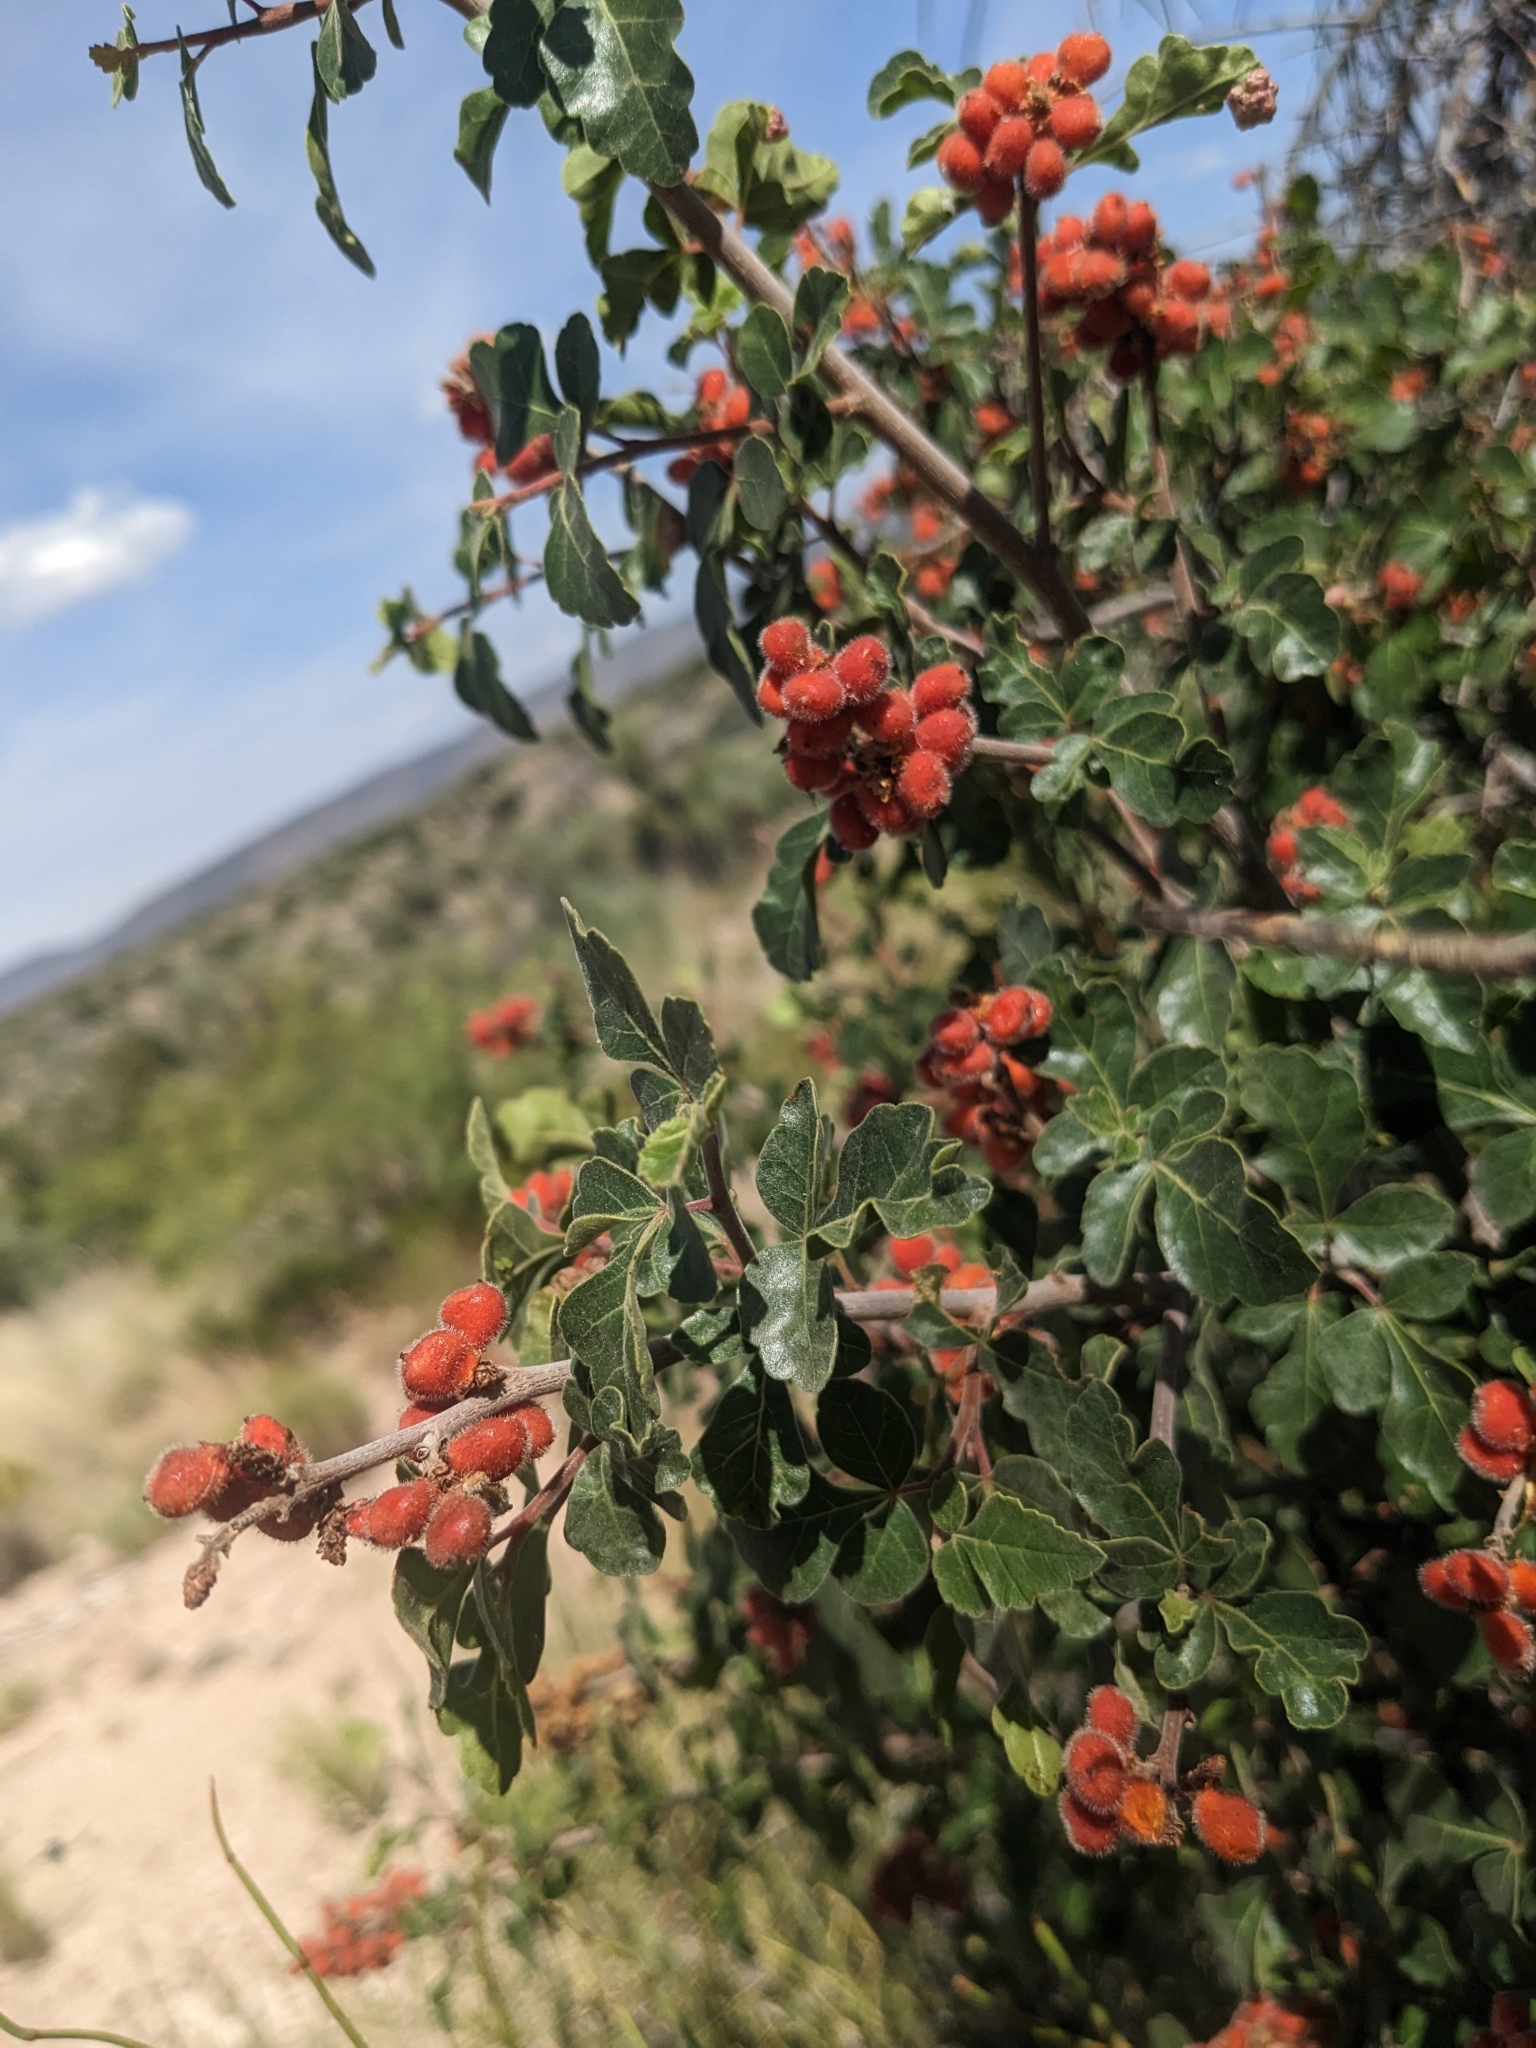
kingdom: Plantae
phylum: Tracheophyta
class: Magnoliopsida
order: Sapindales
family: Anacardiaceae
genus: Rhus
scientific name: Rhus aromatica
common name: Aromatic sumac
